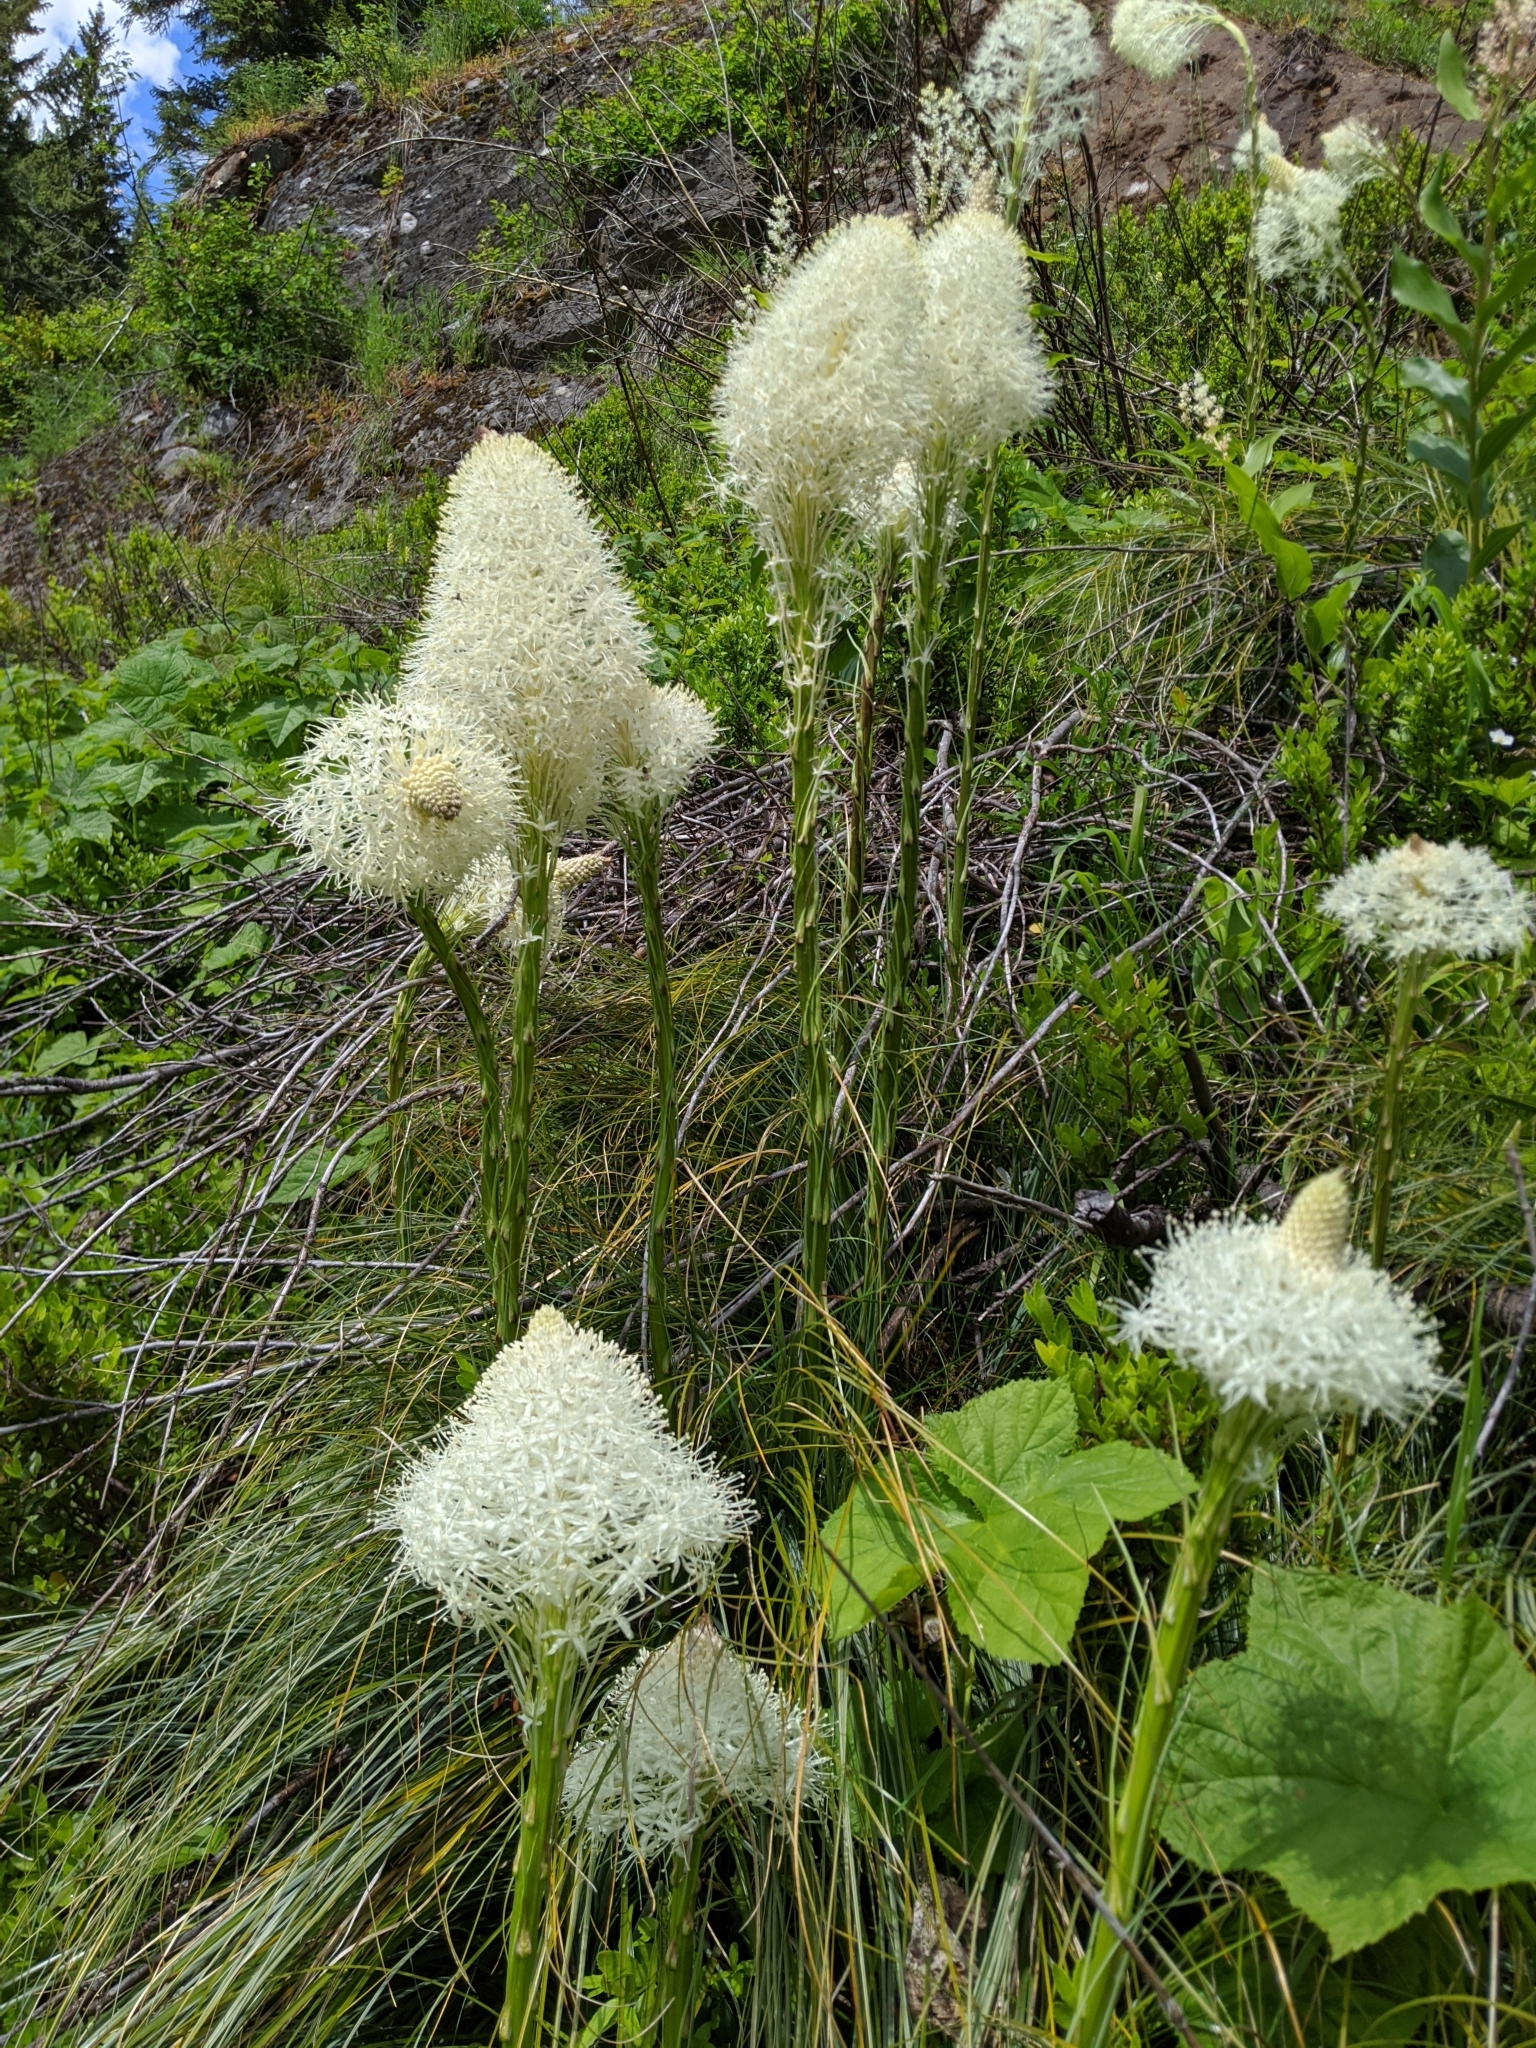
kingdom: Plantae
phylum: Tracheophyta
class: Liliopsida
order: Liliales
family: Melanthiaceae
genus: Xerophyllum
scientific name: Xerophyllum tenax
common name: Bear-grass
